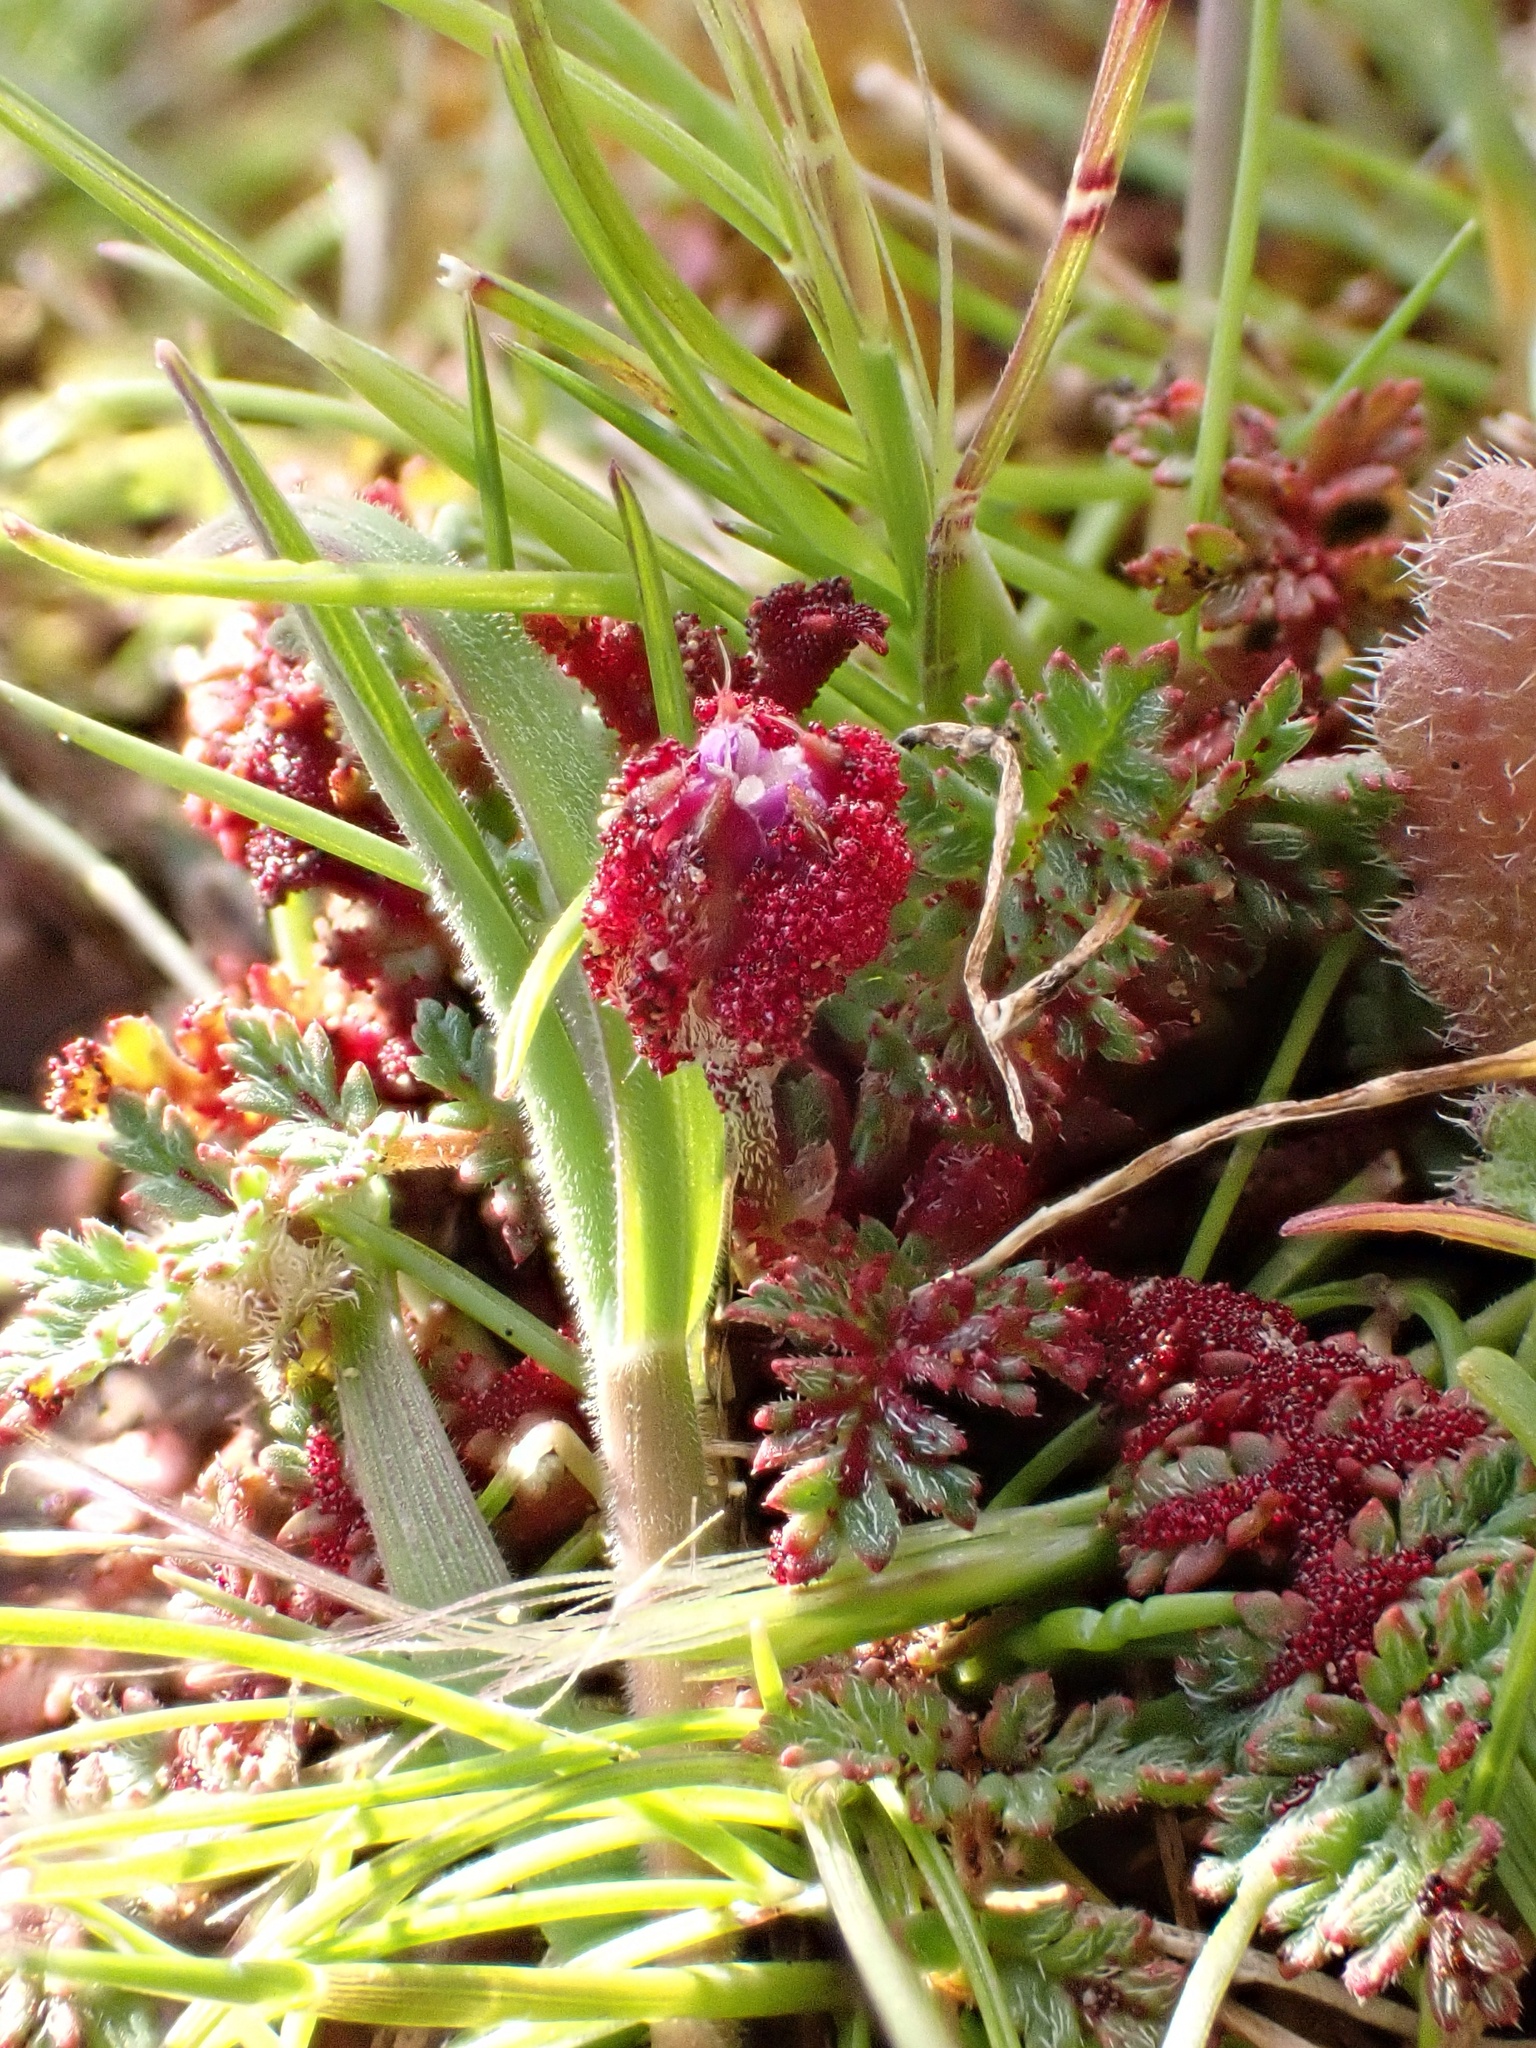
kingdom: Fungi
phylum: Chytridiomycota
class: Chytridiomycetes
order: Chytridiales
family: Synchytriaceae
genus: Synchytrium
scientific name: Synchytrium papillatum
